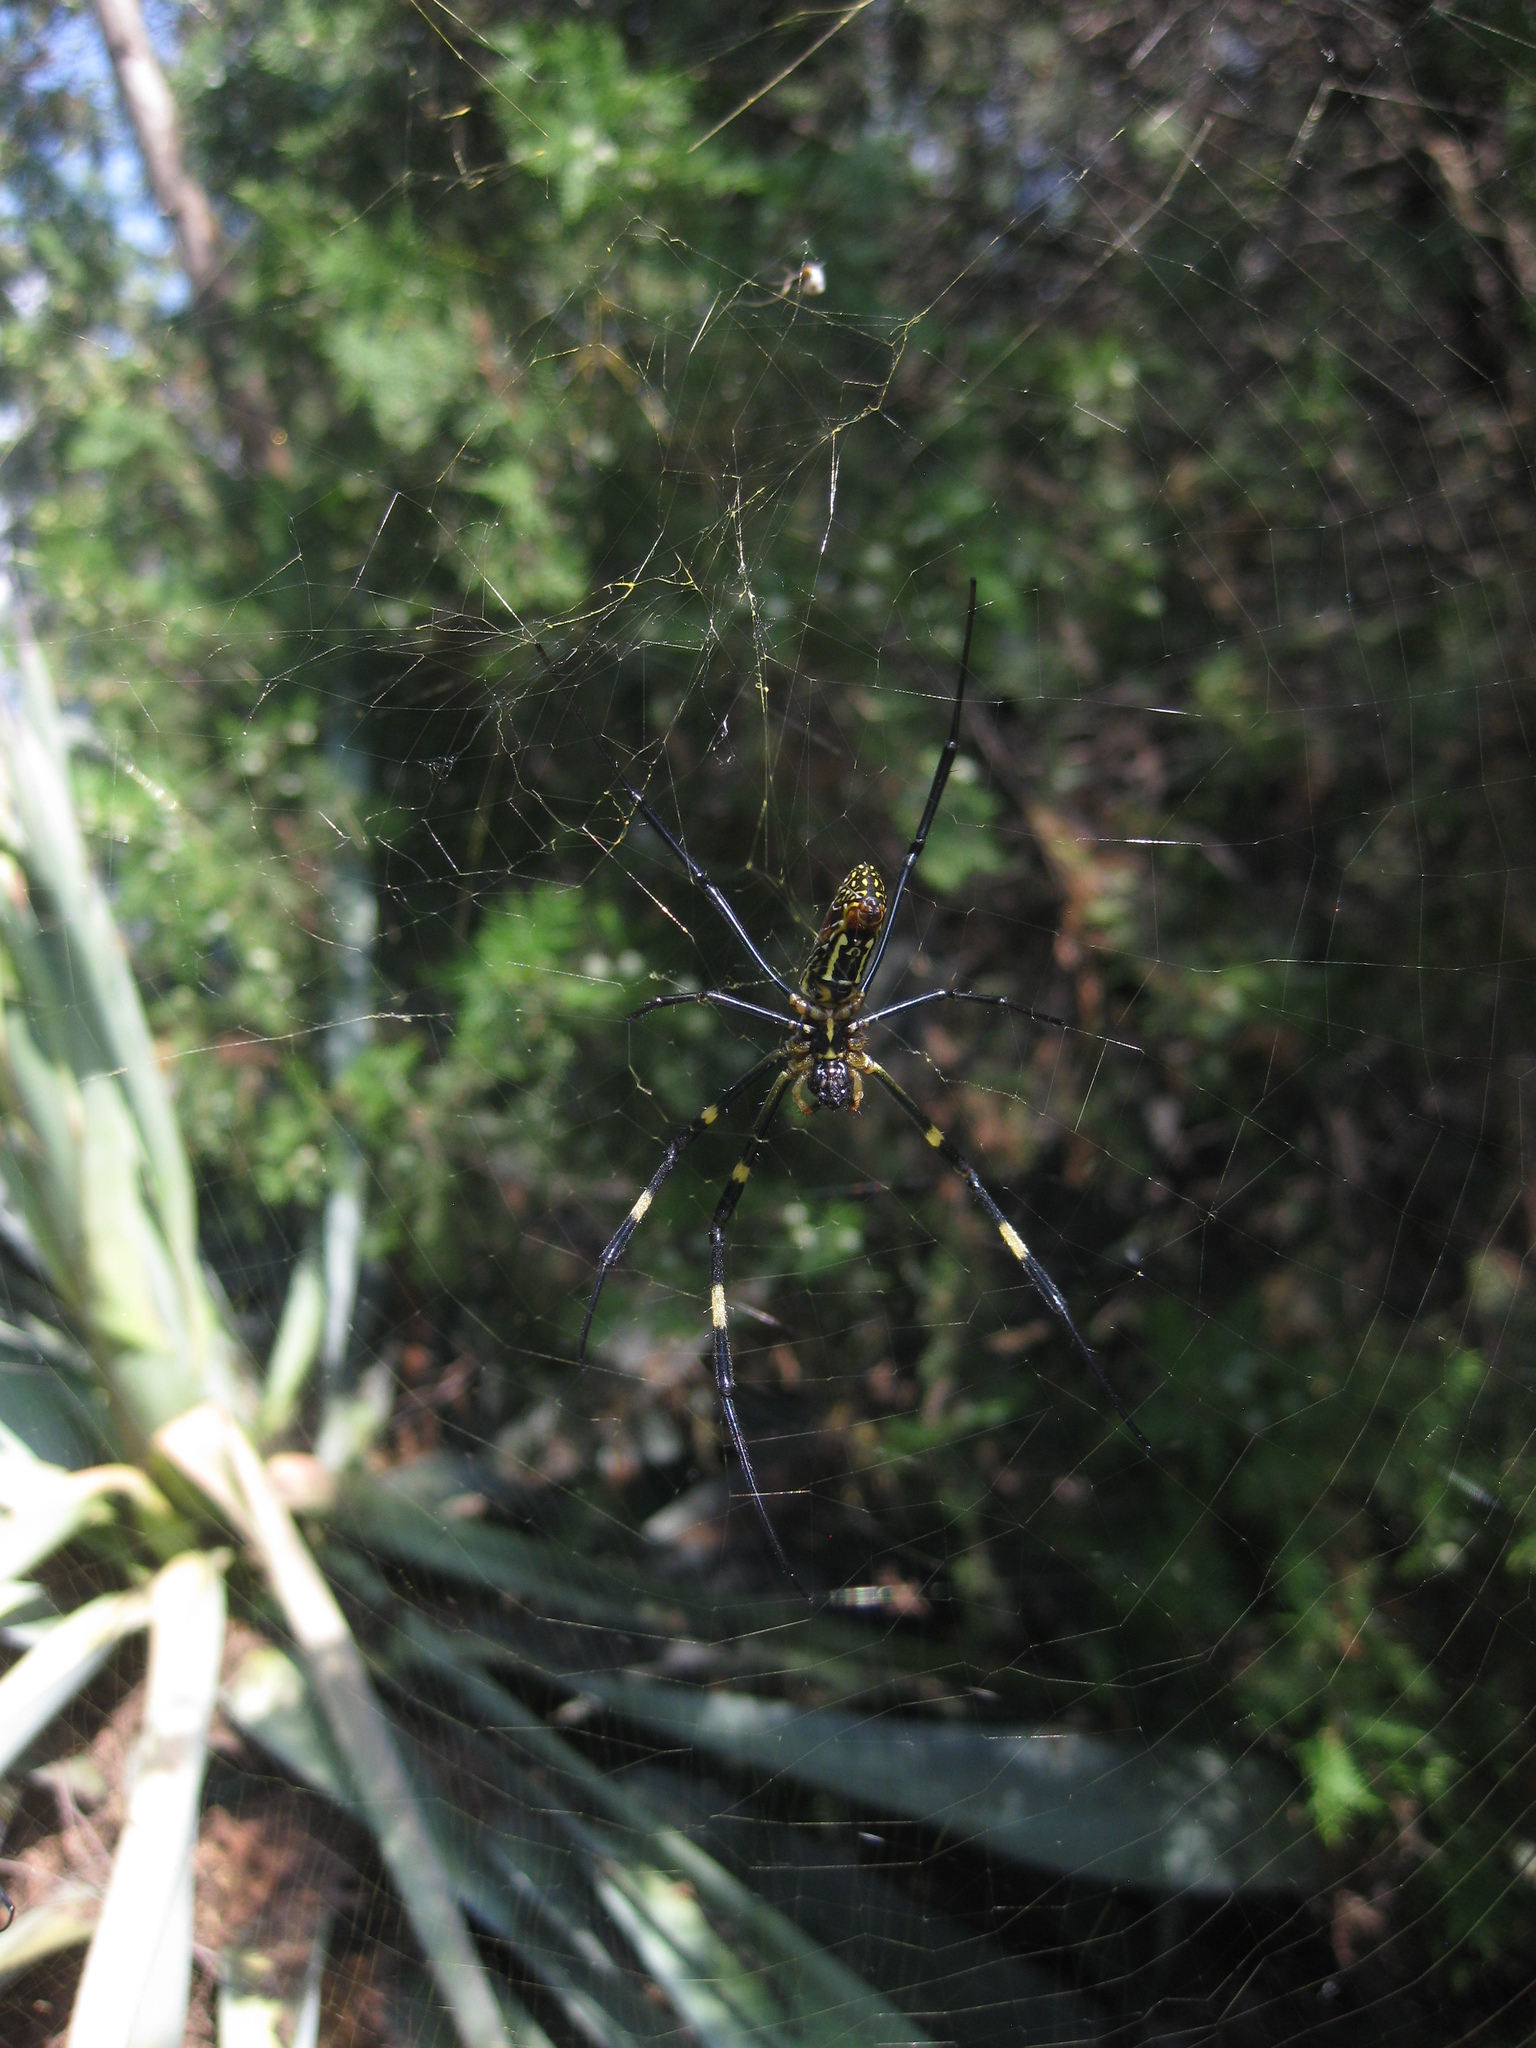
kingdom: Animalia
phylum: Arthropoda
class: Arachnida
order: Araneae
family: Araneidae
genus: Trichonephila
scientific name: Trichonephila clavata
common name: Jorō spider
